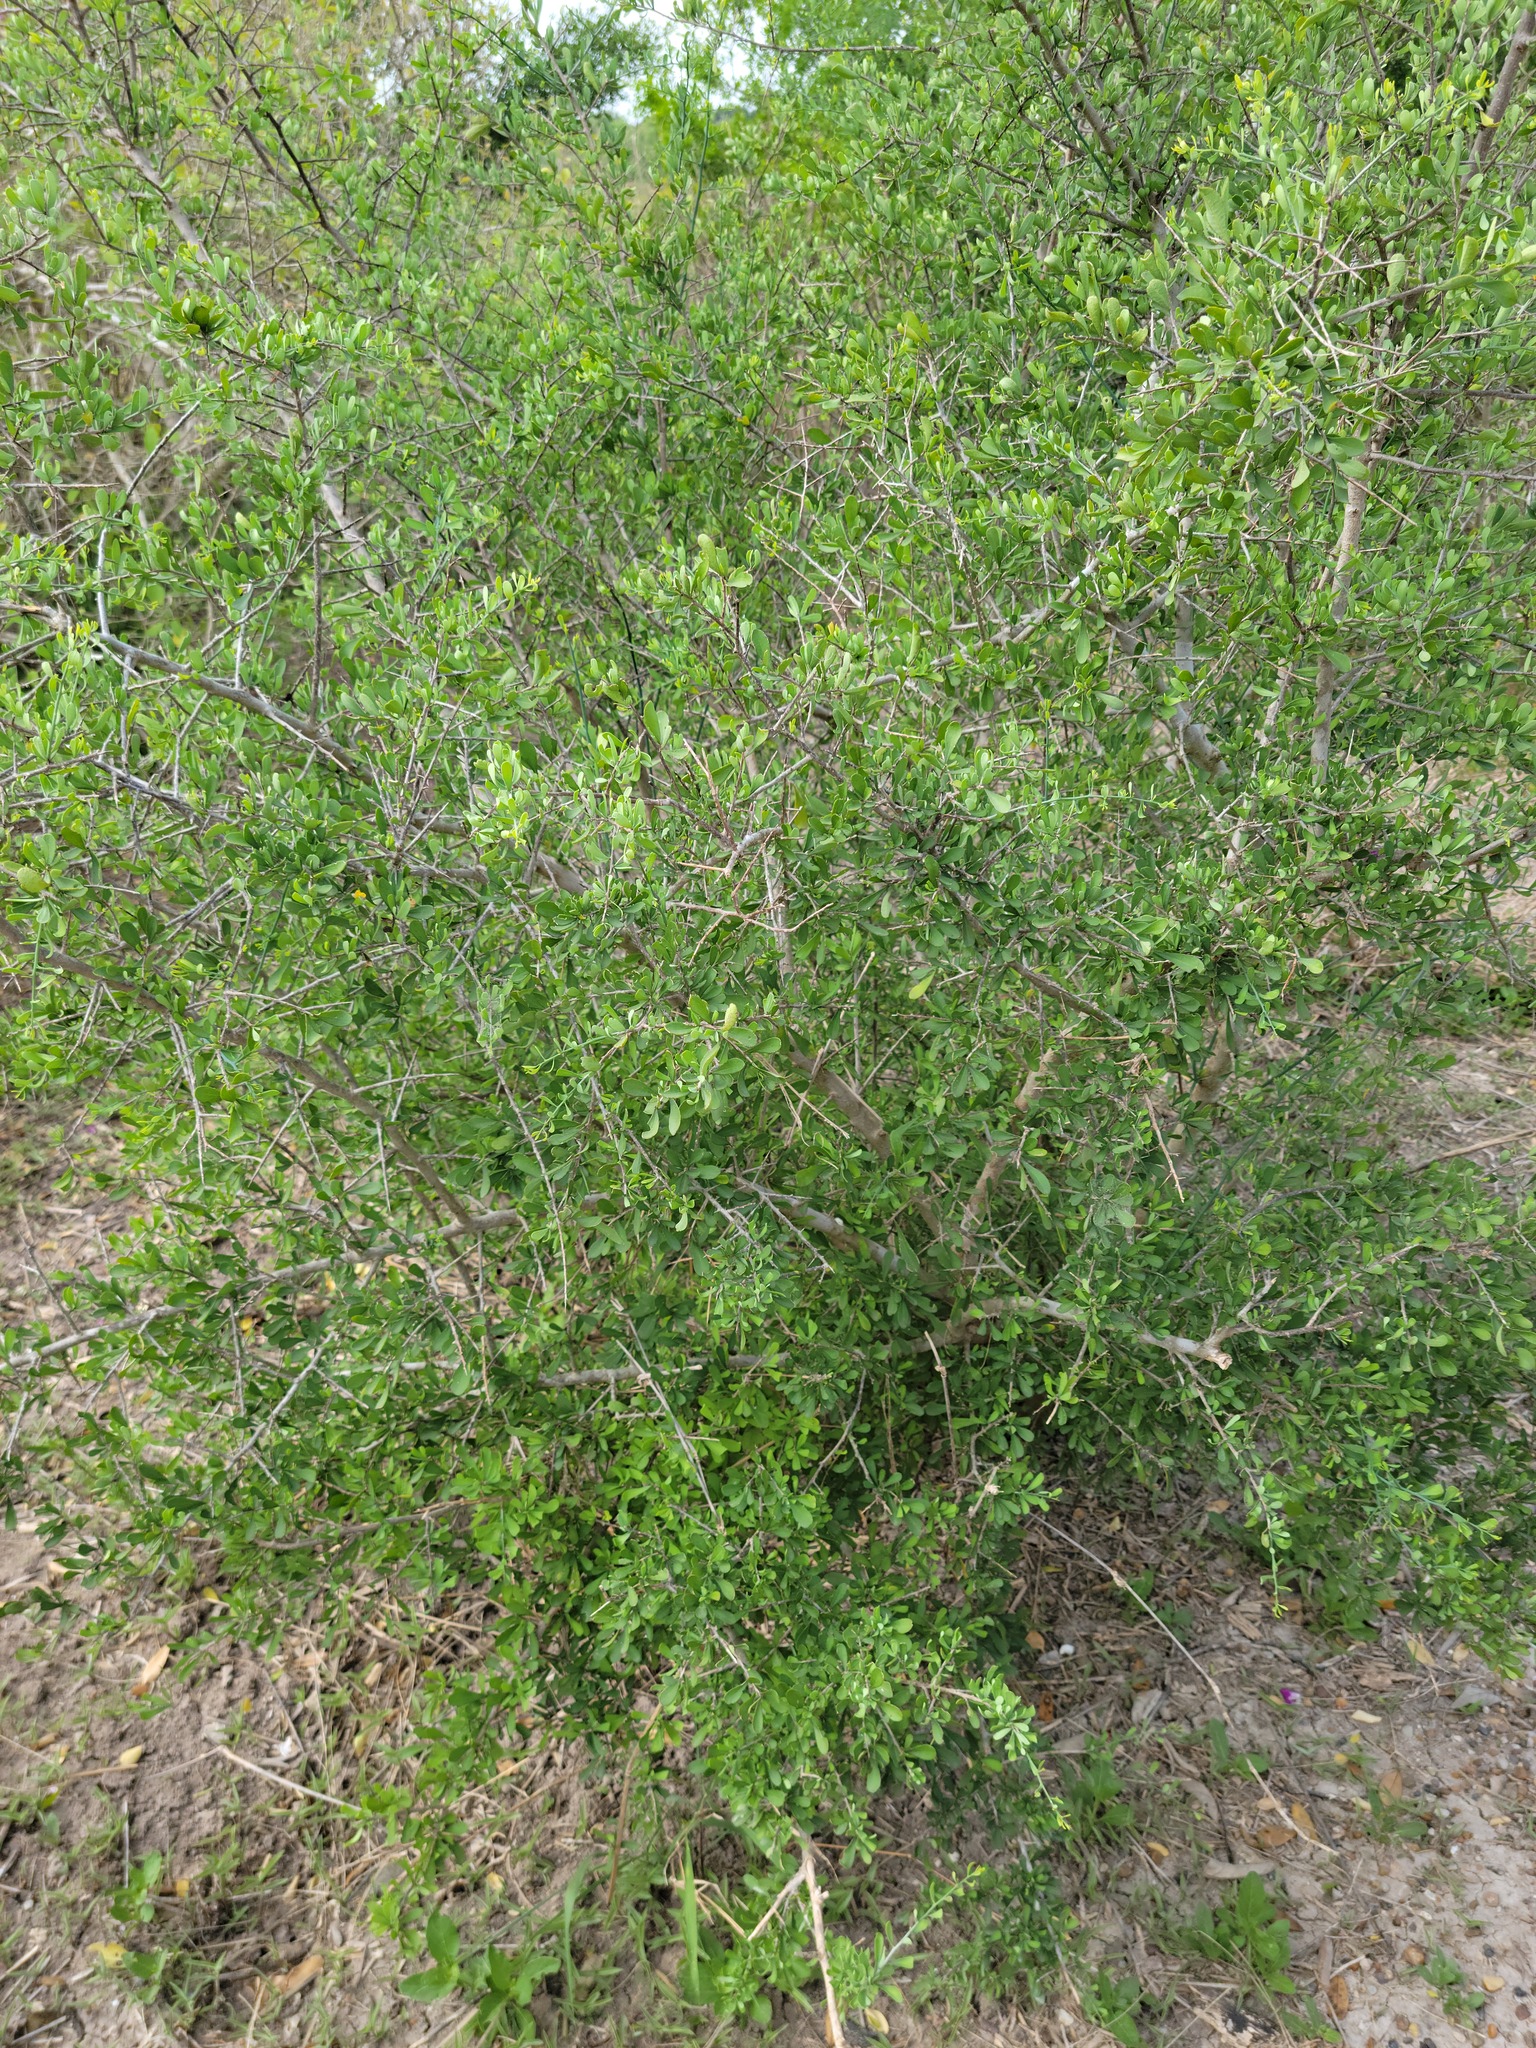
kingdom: Plantae
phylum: Tracheophyta
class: Magnoliopsida
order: Caryophyllales
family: Achatocarpaceae
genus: Phaulothamnus
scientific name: Phaulothamnus spinescens
